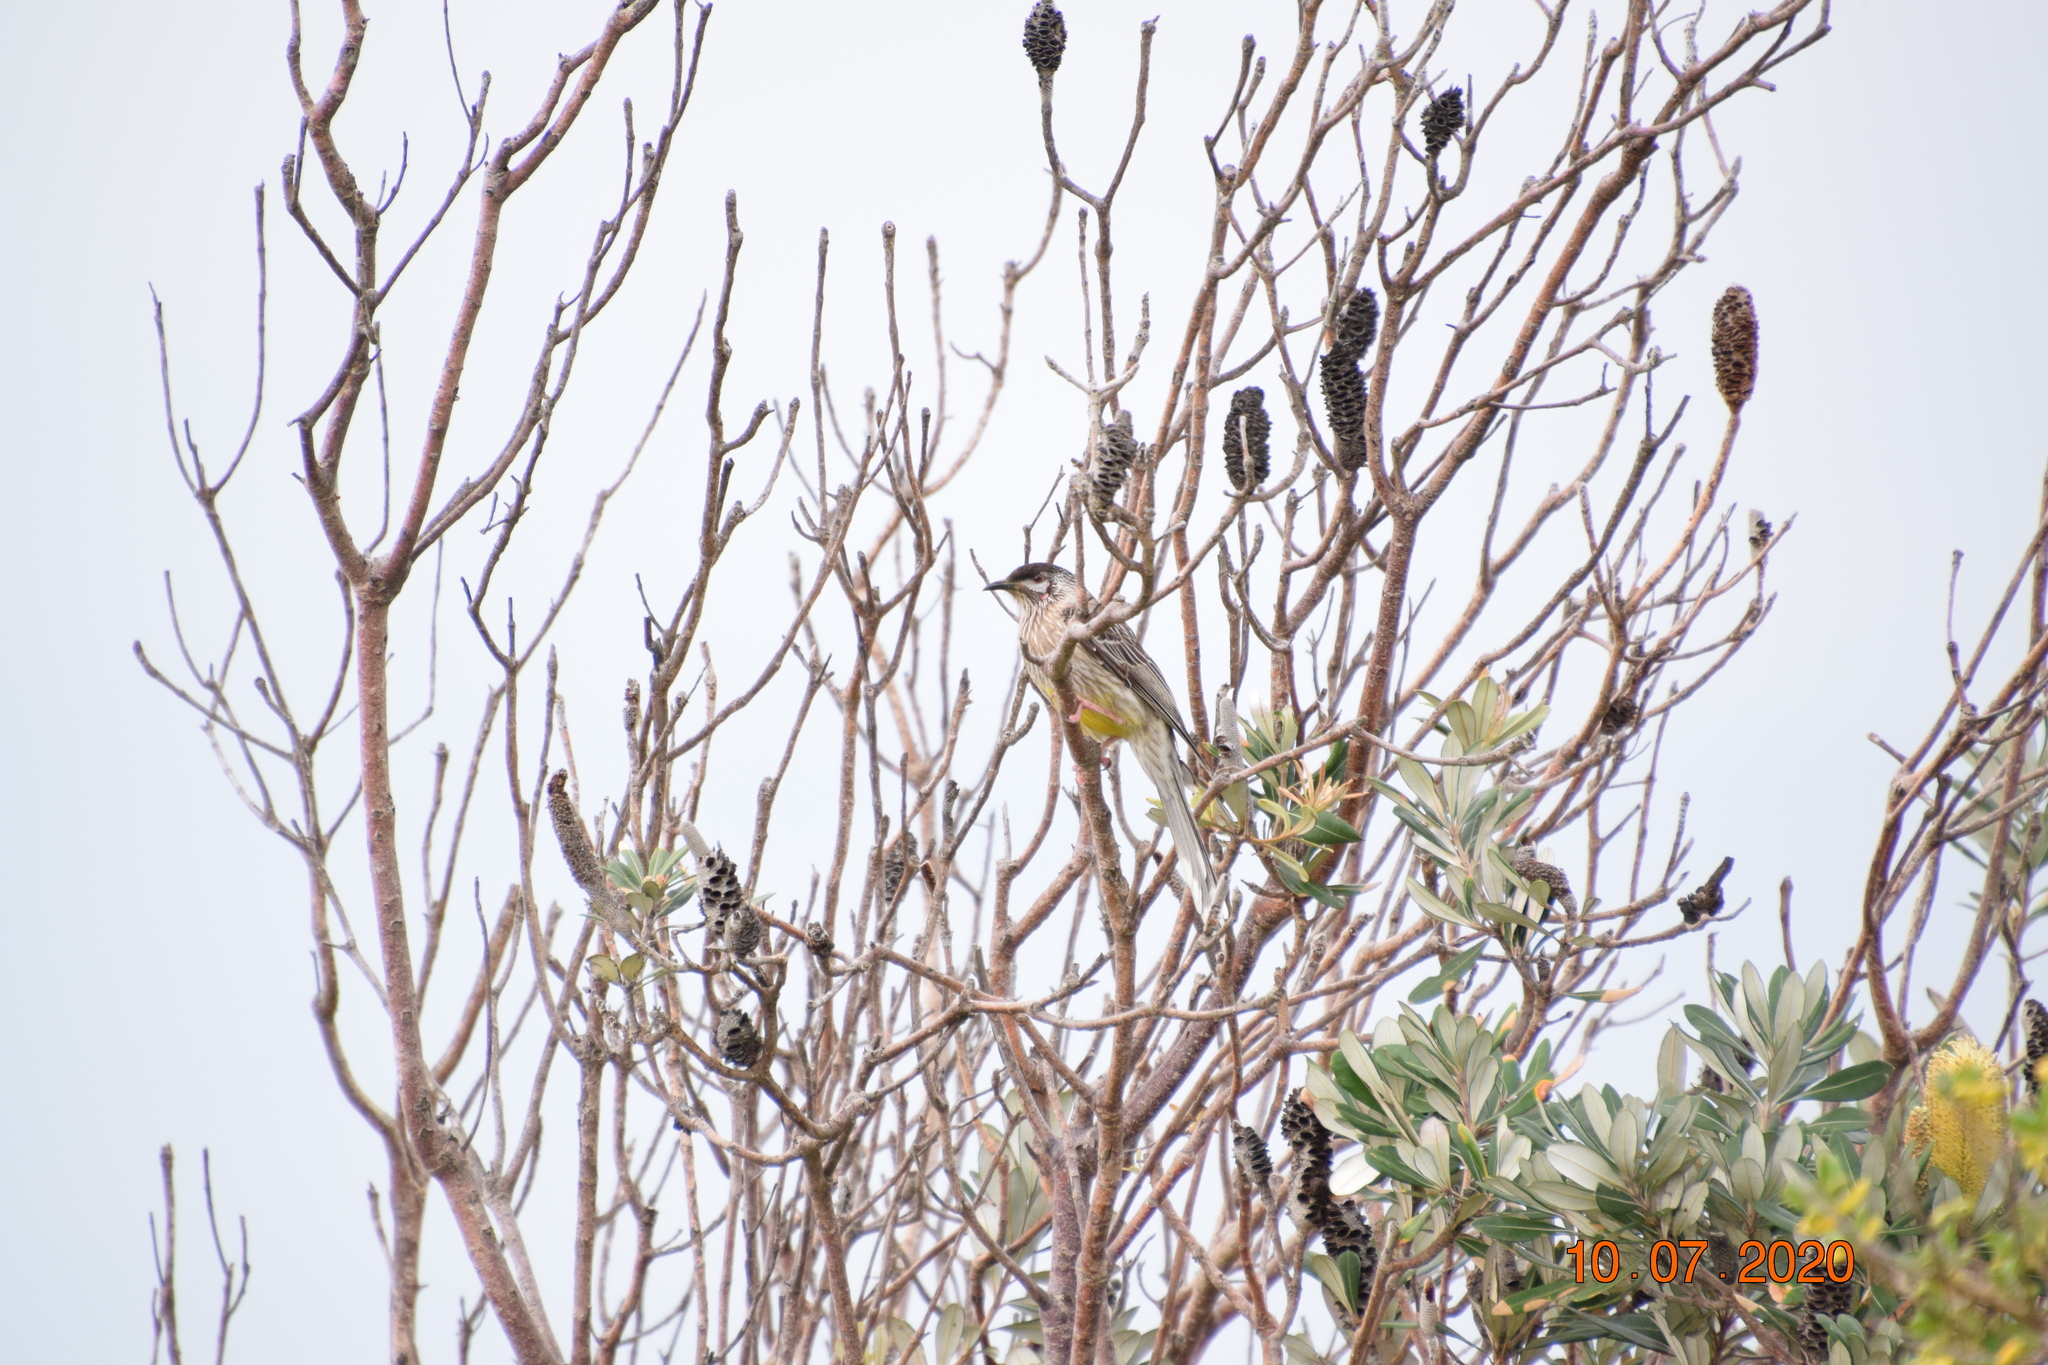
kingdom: Animalia
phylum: Chordata
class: Aves
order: Passeriformes
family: Meliphagidae
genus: Anthochaera
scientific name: Anthochaera carunculata
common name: Red wattlebird
